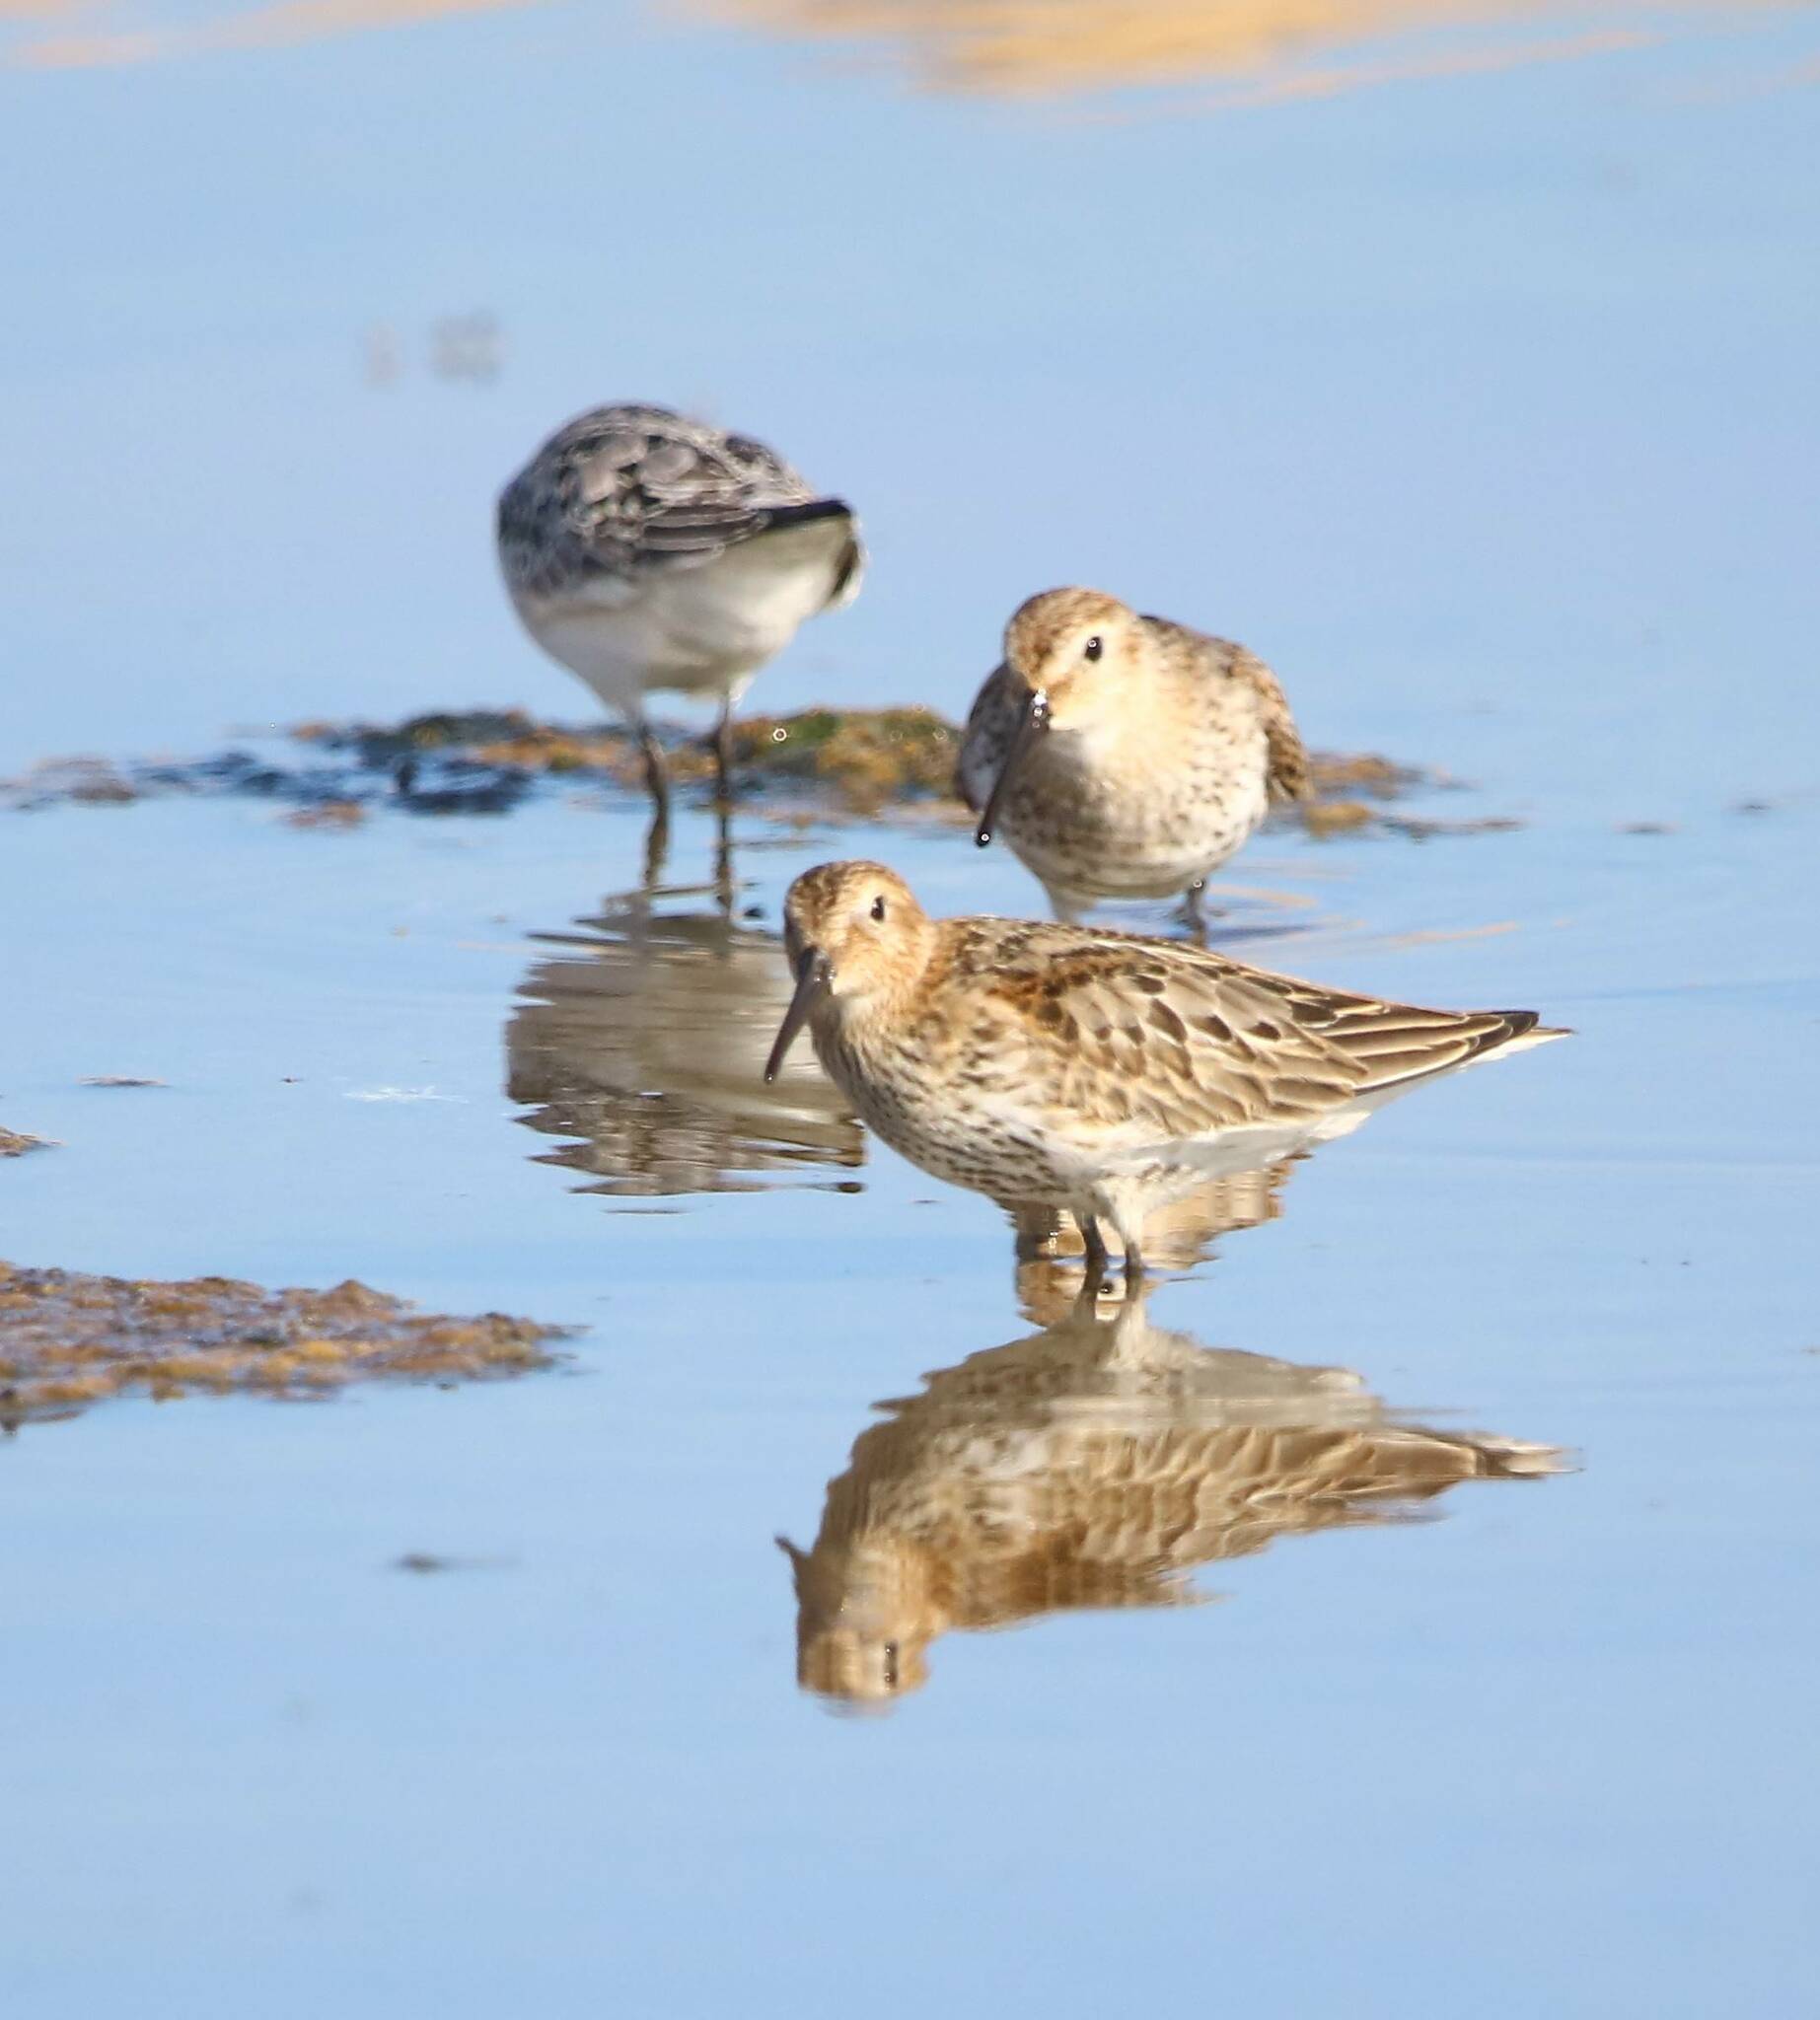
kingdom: Animalia
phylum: Chordata
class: Aves
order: Charadriiformes
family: Scolopacidae
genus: Calidris
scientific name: Calidris alpina
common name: Dunlin
